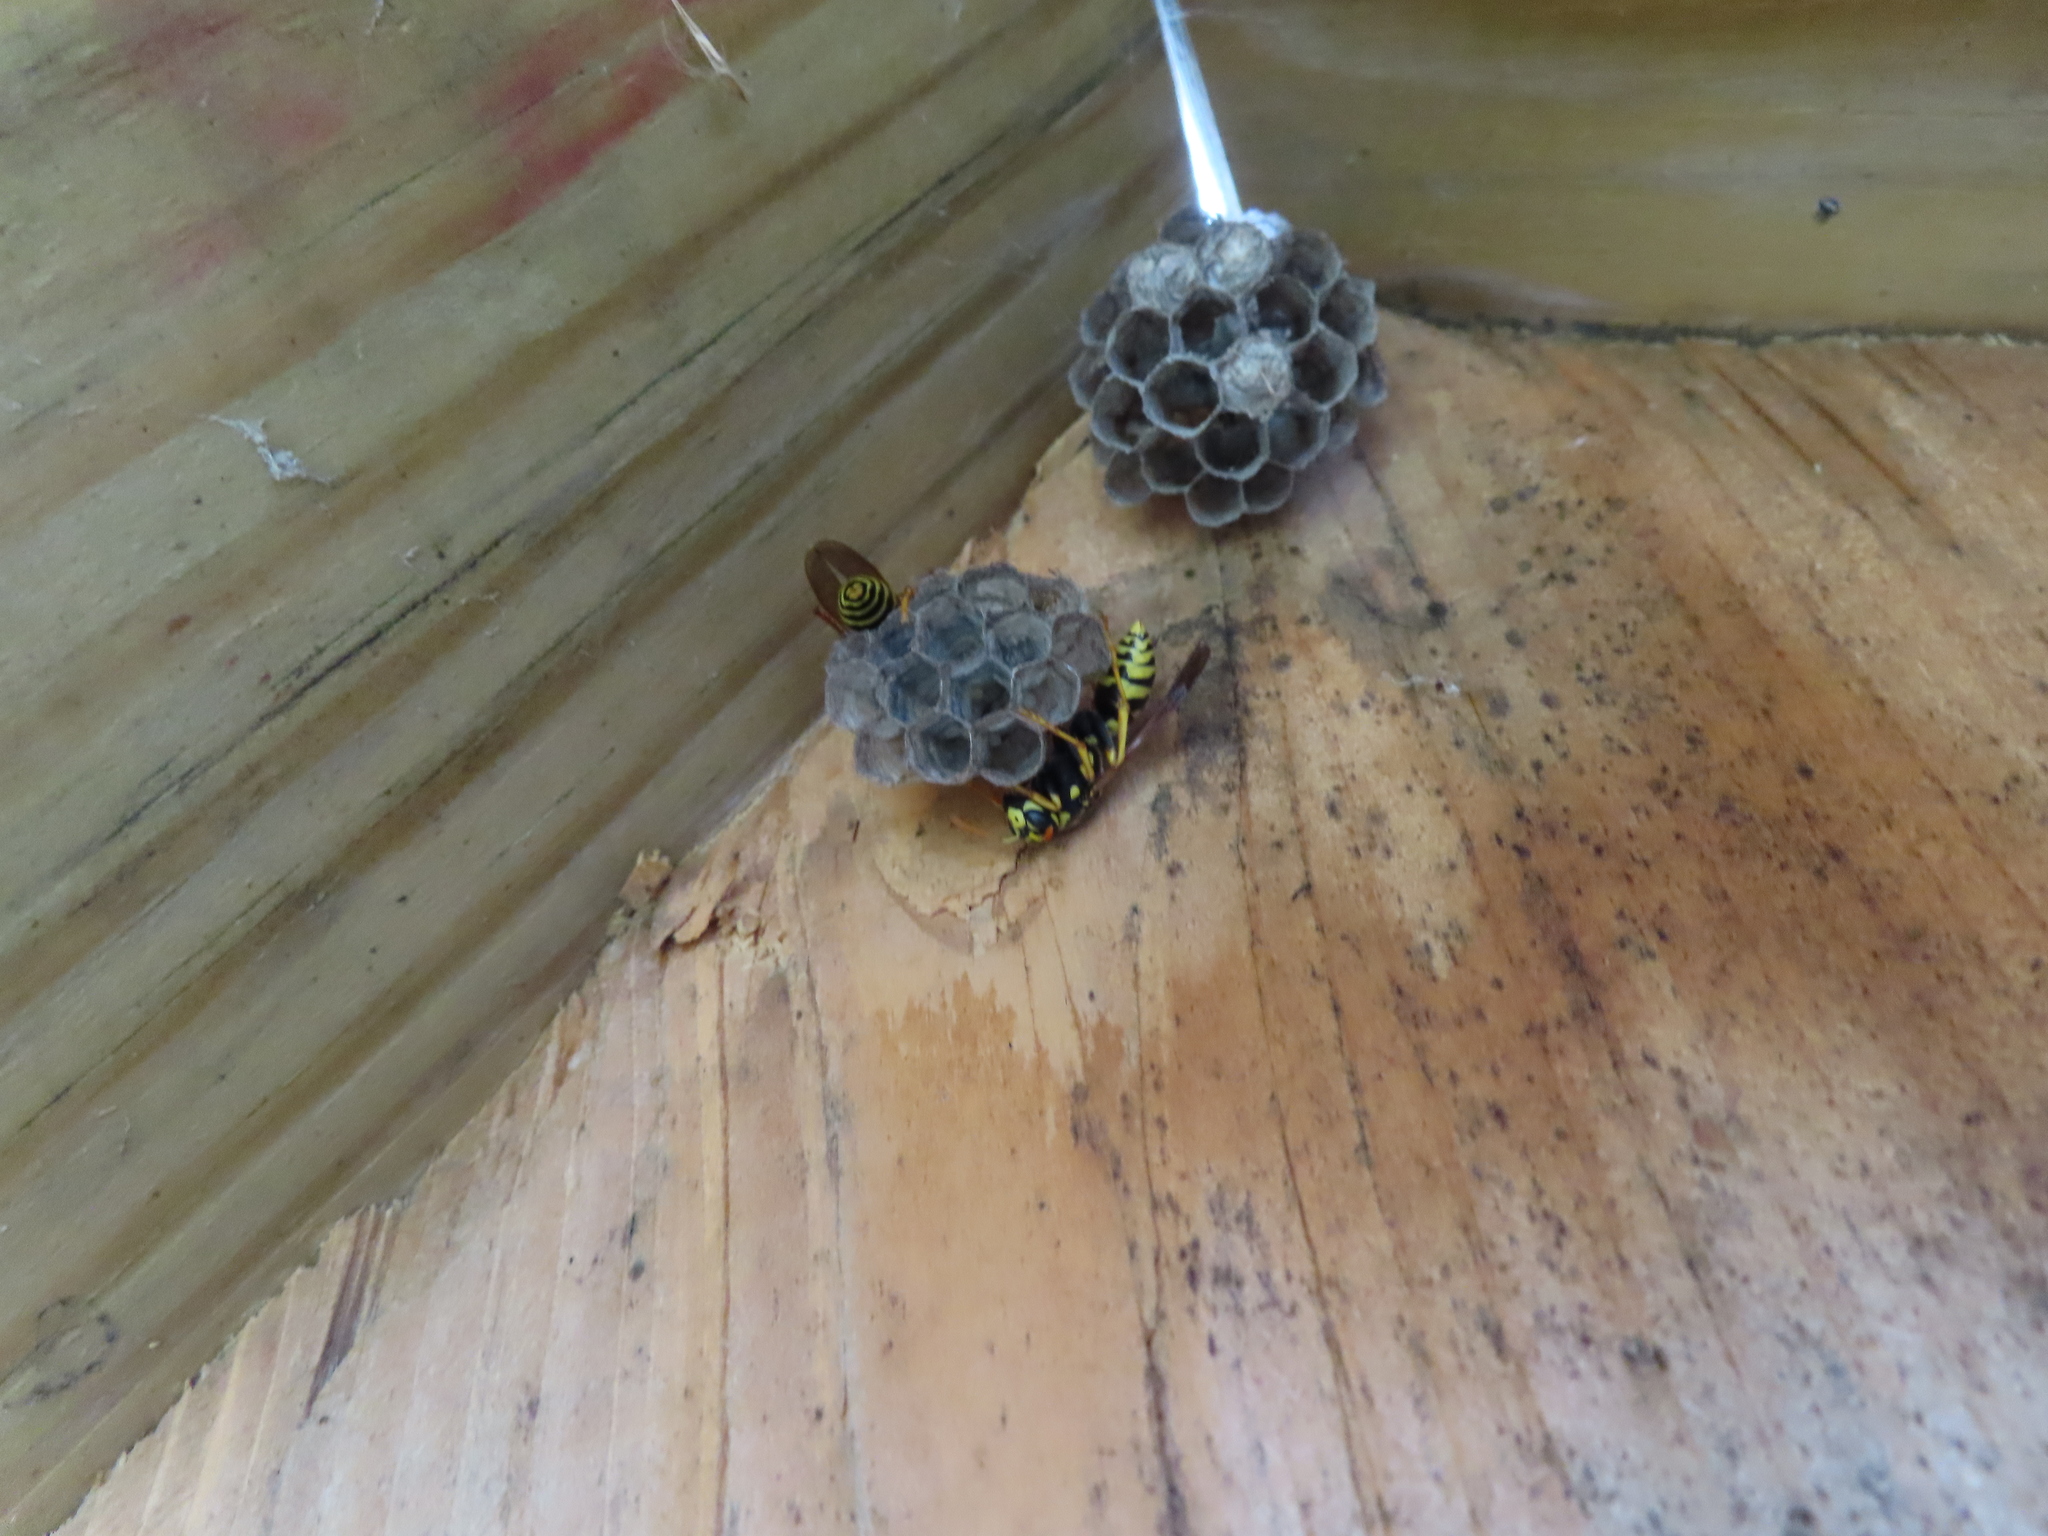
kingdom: Animalia
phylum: Arthropoda
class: Insecta
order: Hymenoptera
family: Eumenidae
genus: Polistes
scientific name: Polistes dominula
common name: Paper wasp
